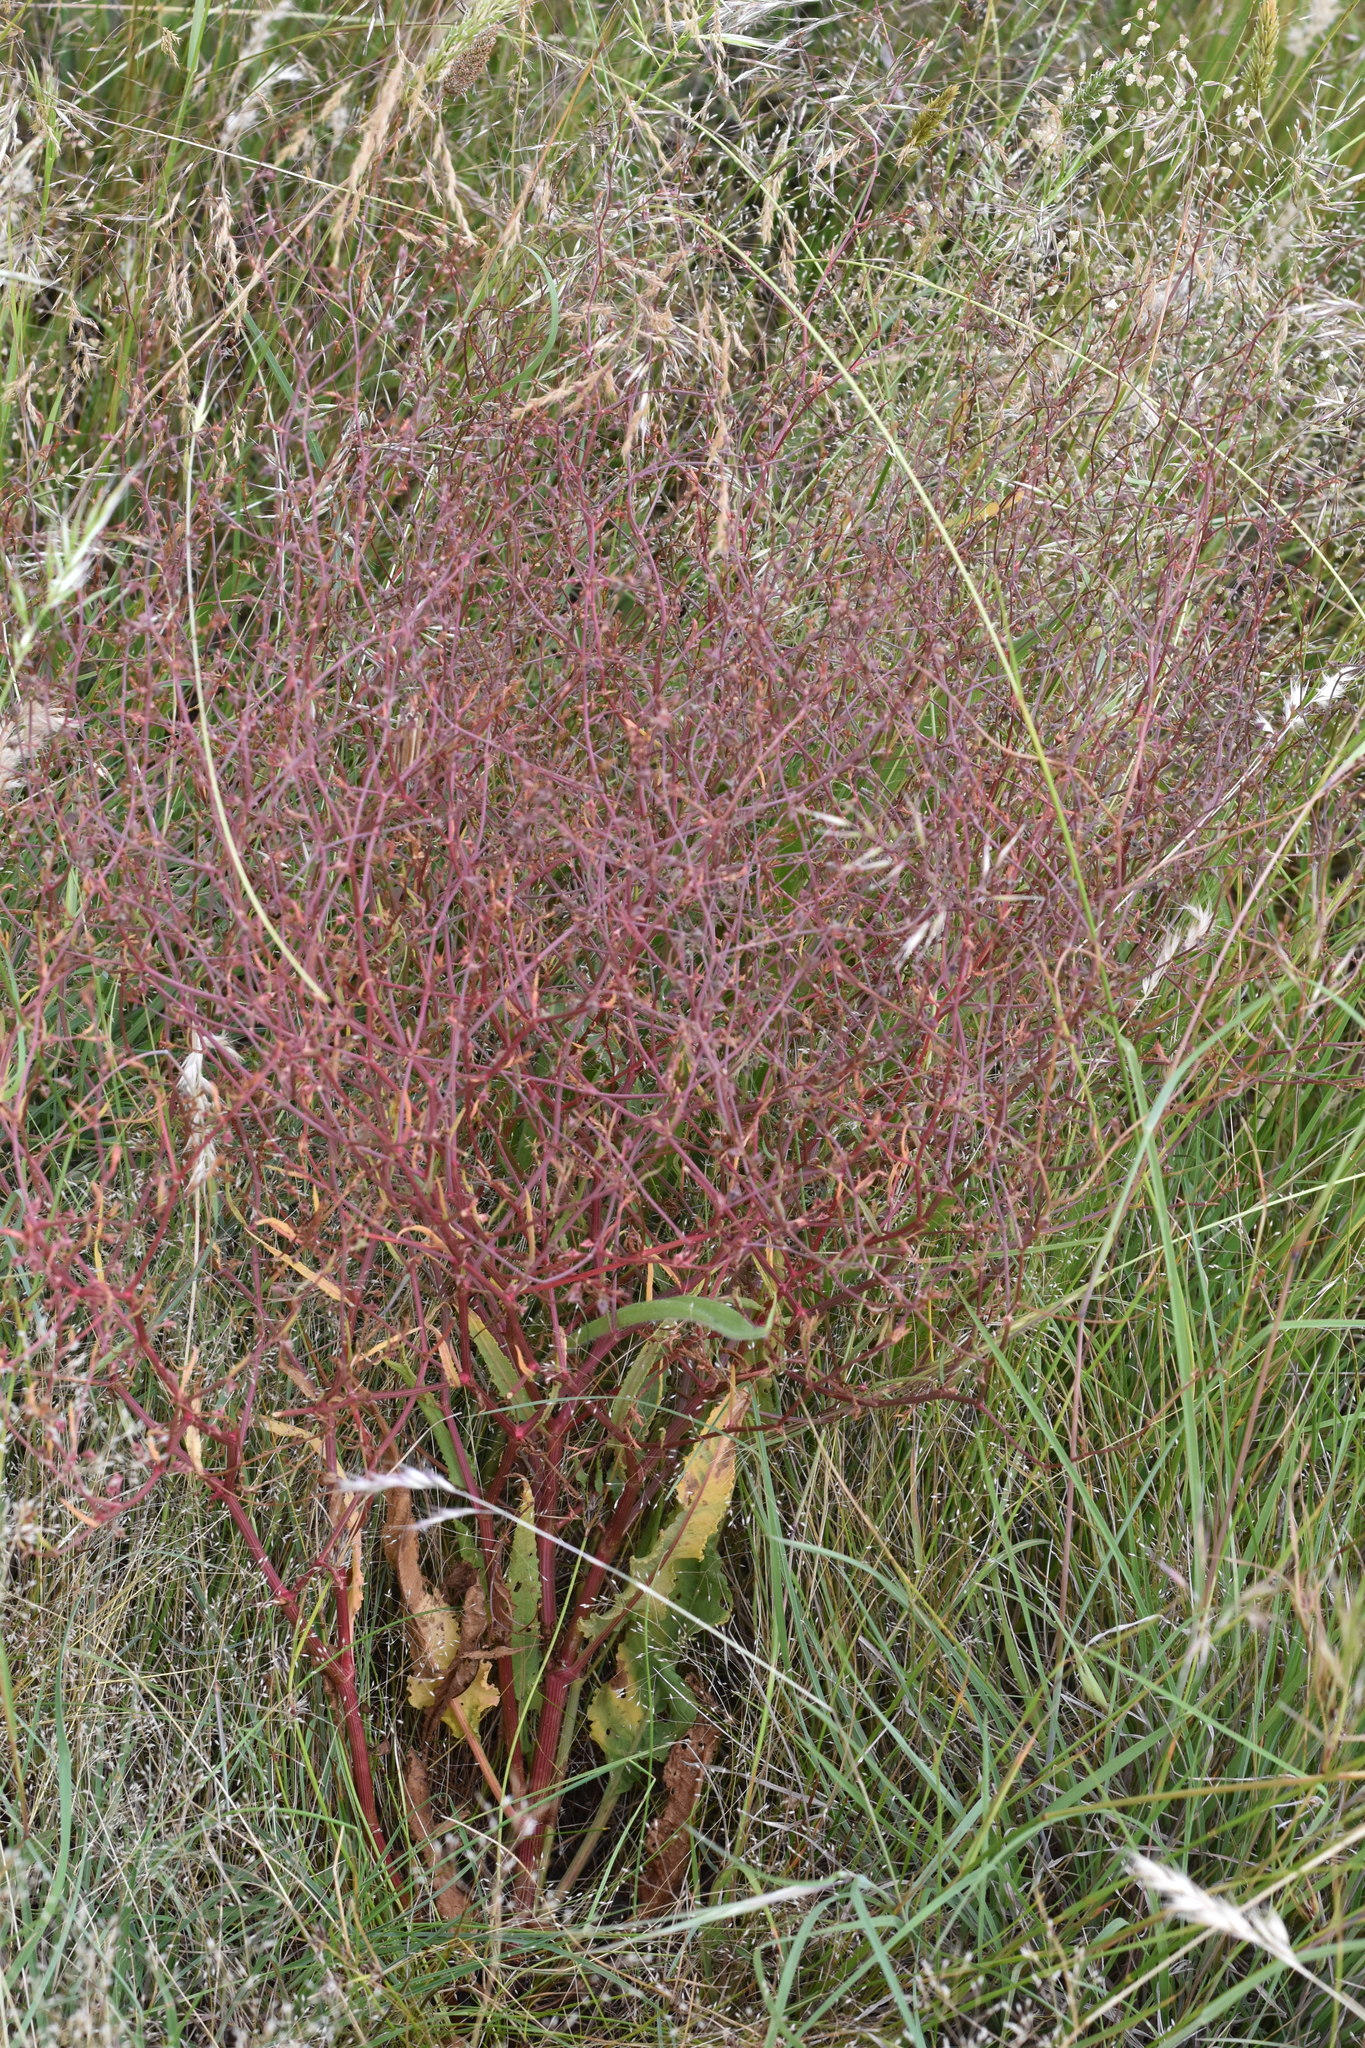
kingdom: Plantae
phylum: Tracheophyta
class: Magnoliopsida
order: Caryophyllales
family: Polygonaceae
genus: Rumex
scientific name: Rumex dumosus
